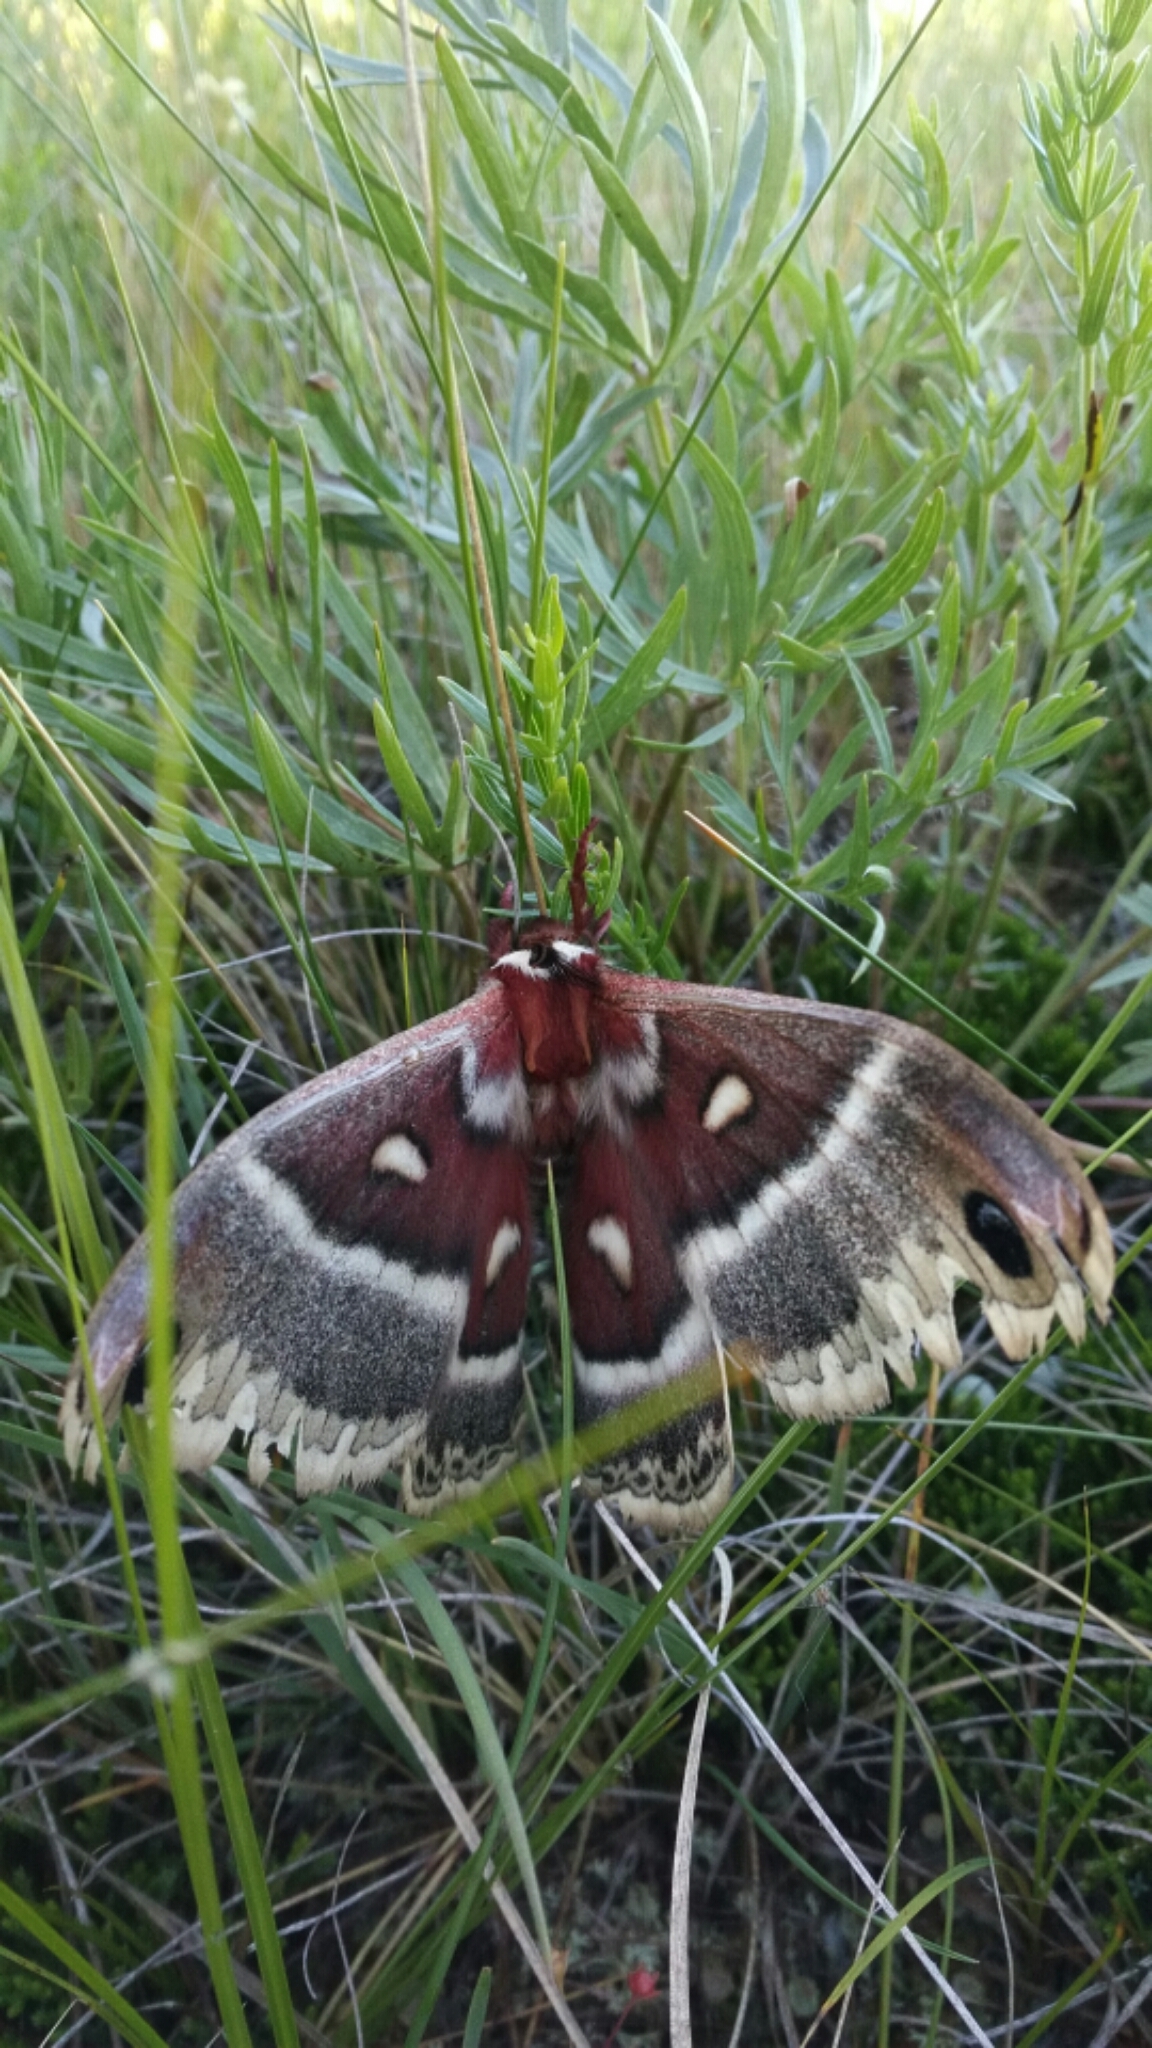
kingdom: Animalia
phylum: Arthropoda
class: Insecta
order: Lepidoptera
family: Saturniidae
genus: Hyalophora
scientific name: Hyalophora gloveri
